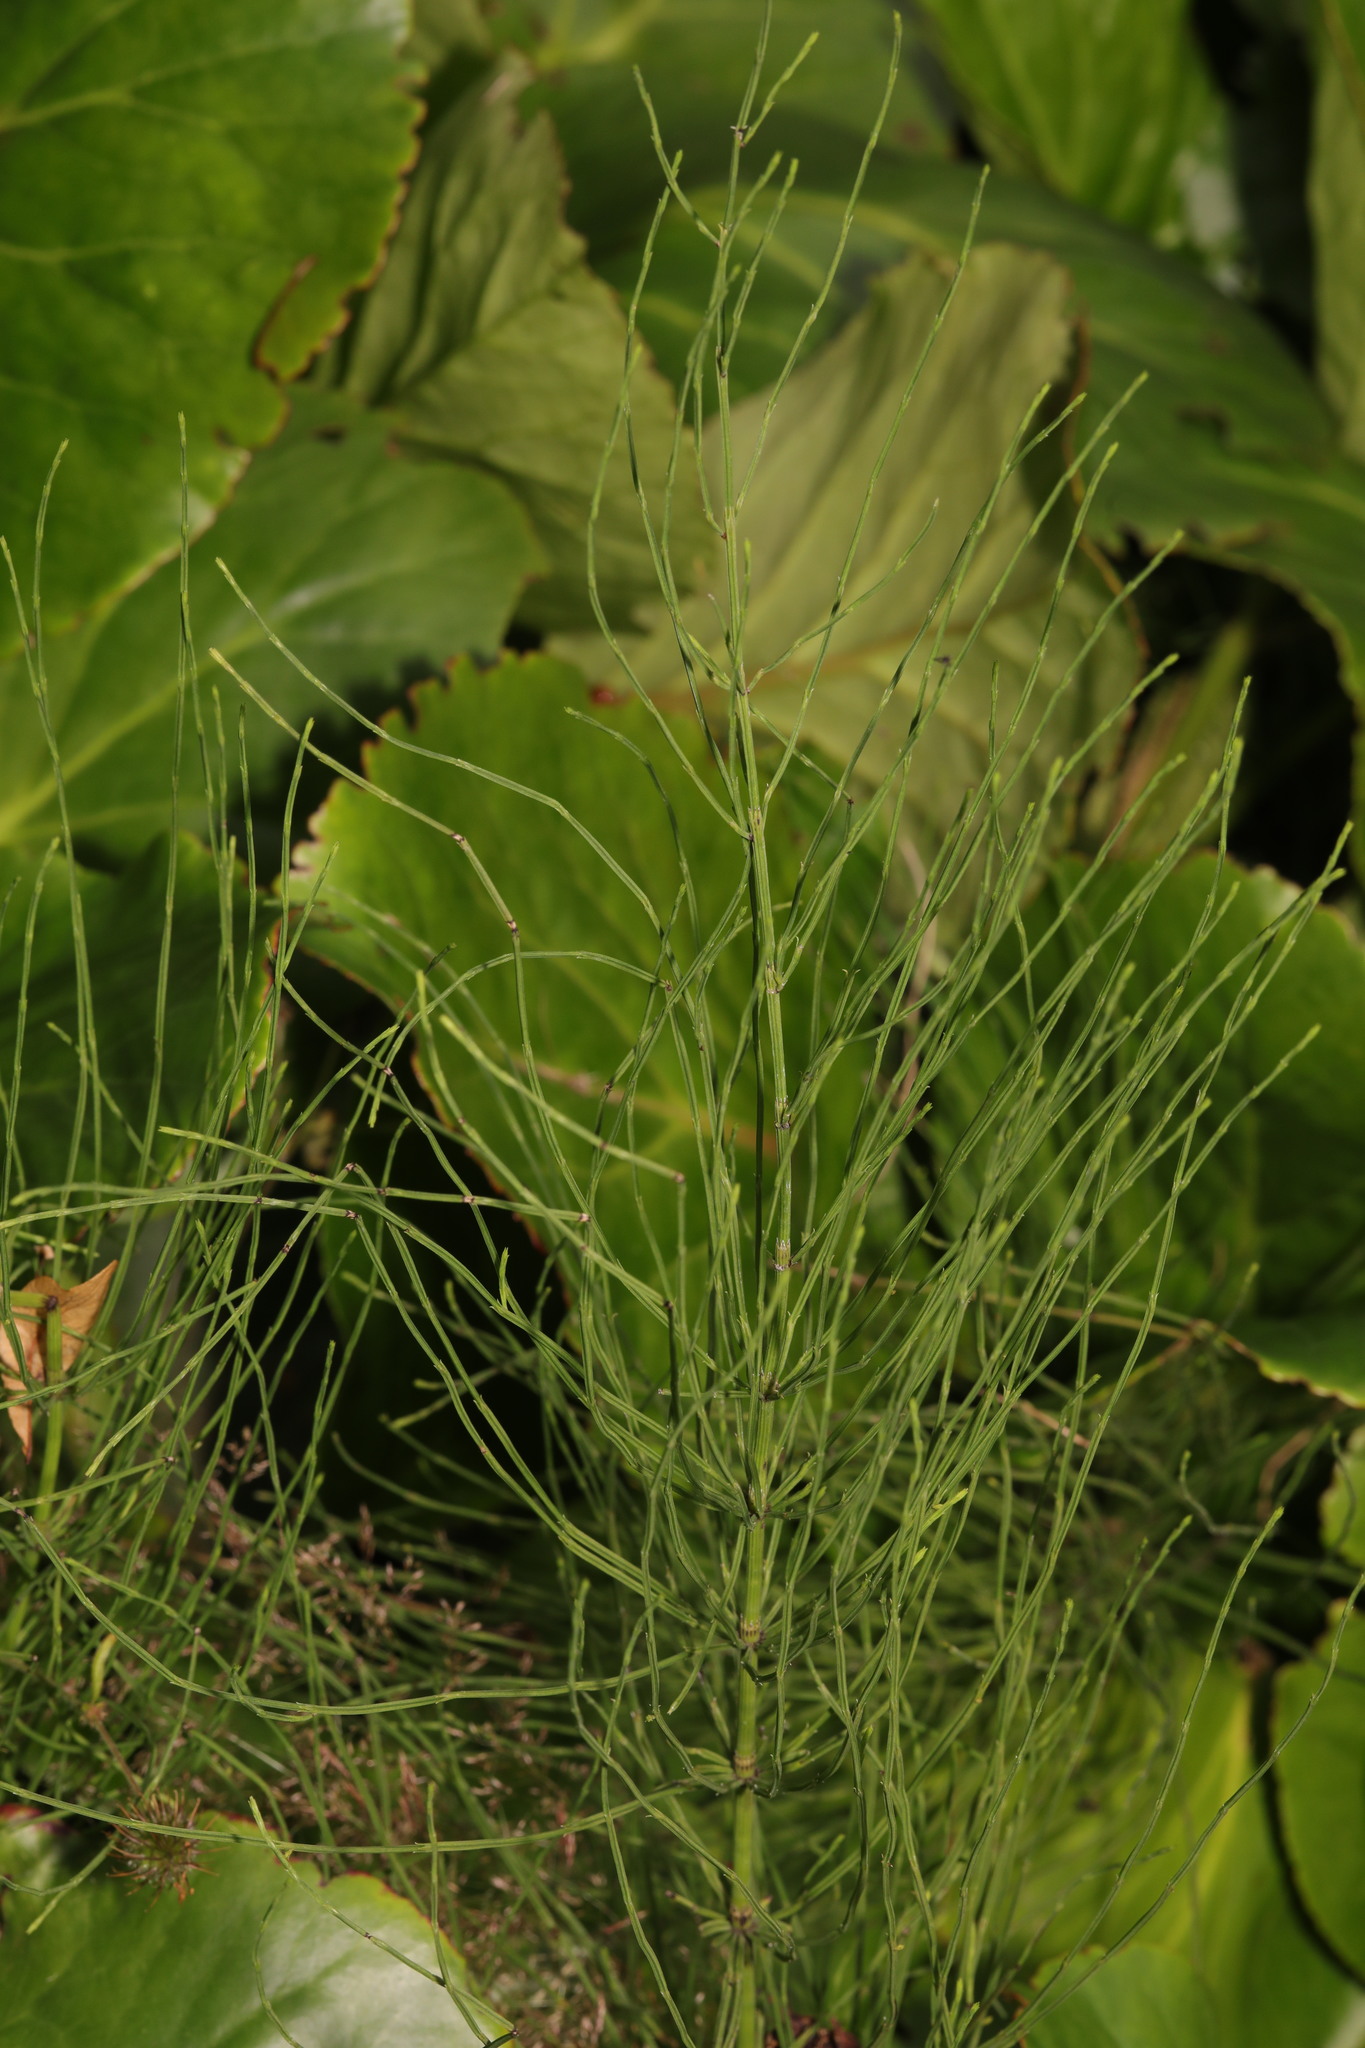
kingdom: Plantae
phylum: Tracheophyta
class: Polypodiopsida
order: Equisetales
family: Equisetaceae
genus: Equisetum
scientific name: Equisetum arvense
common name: Field horsetail
